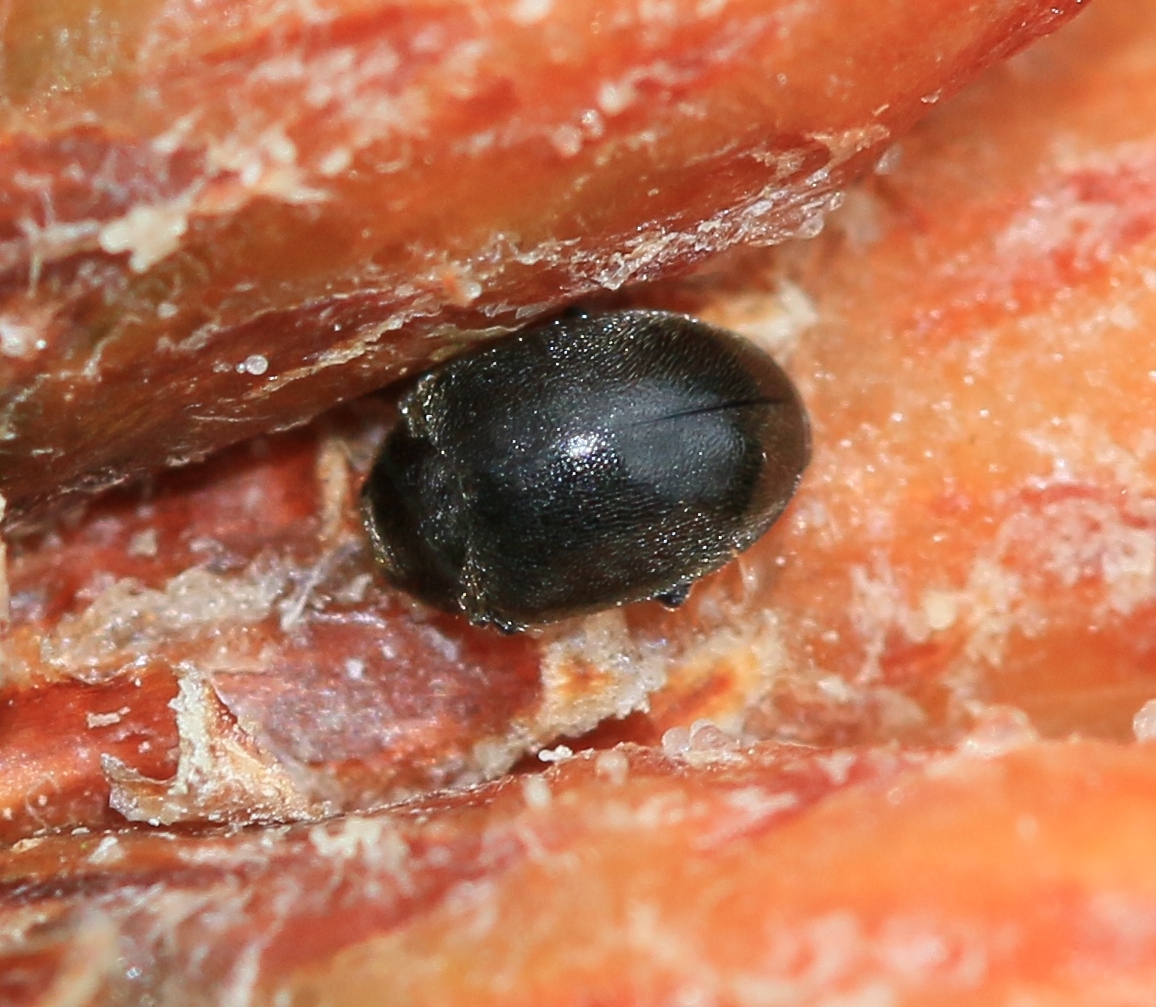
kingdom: Animalia
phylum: Arthropoda
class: Insecta
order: Coleoptera
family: Coccinellidae
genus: Scymnus
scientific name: Scymnus nigrinus
